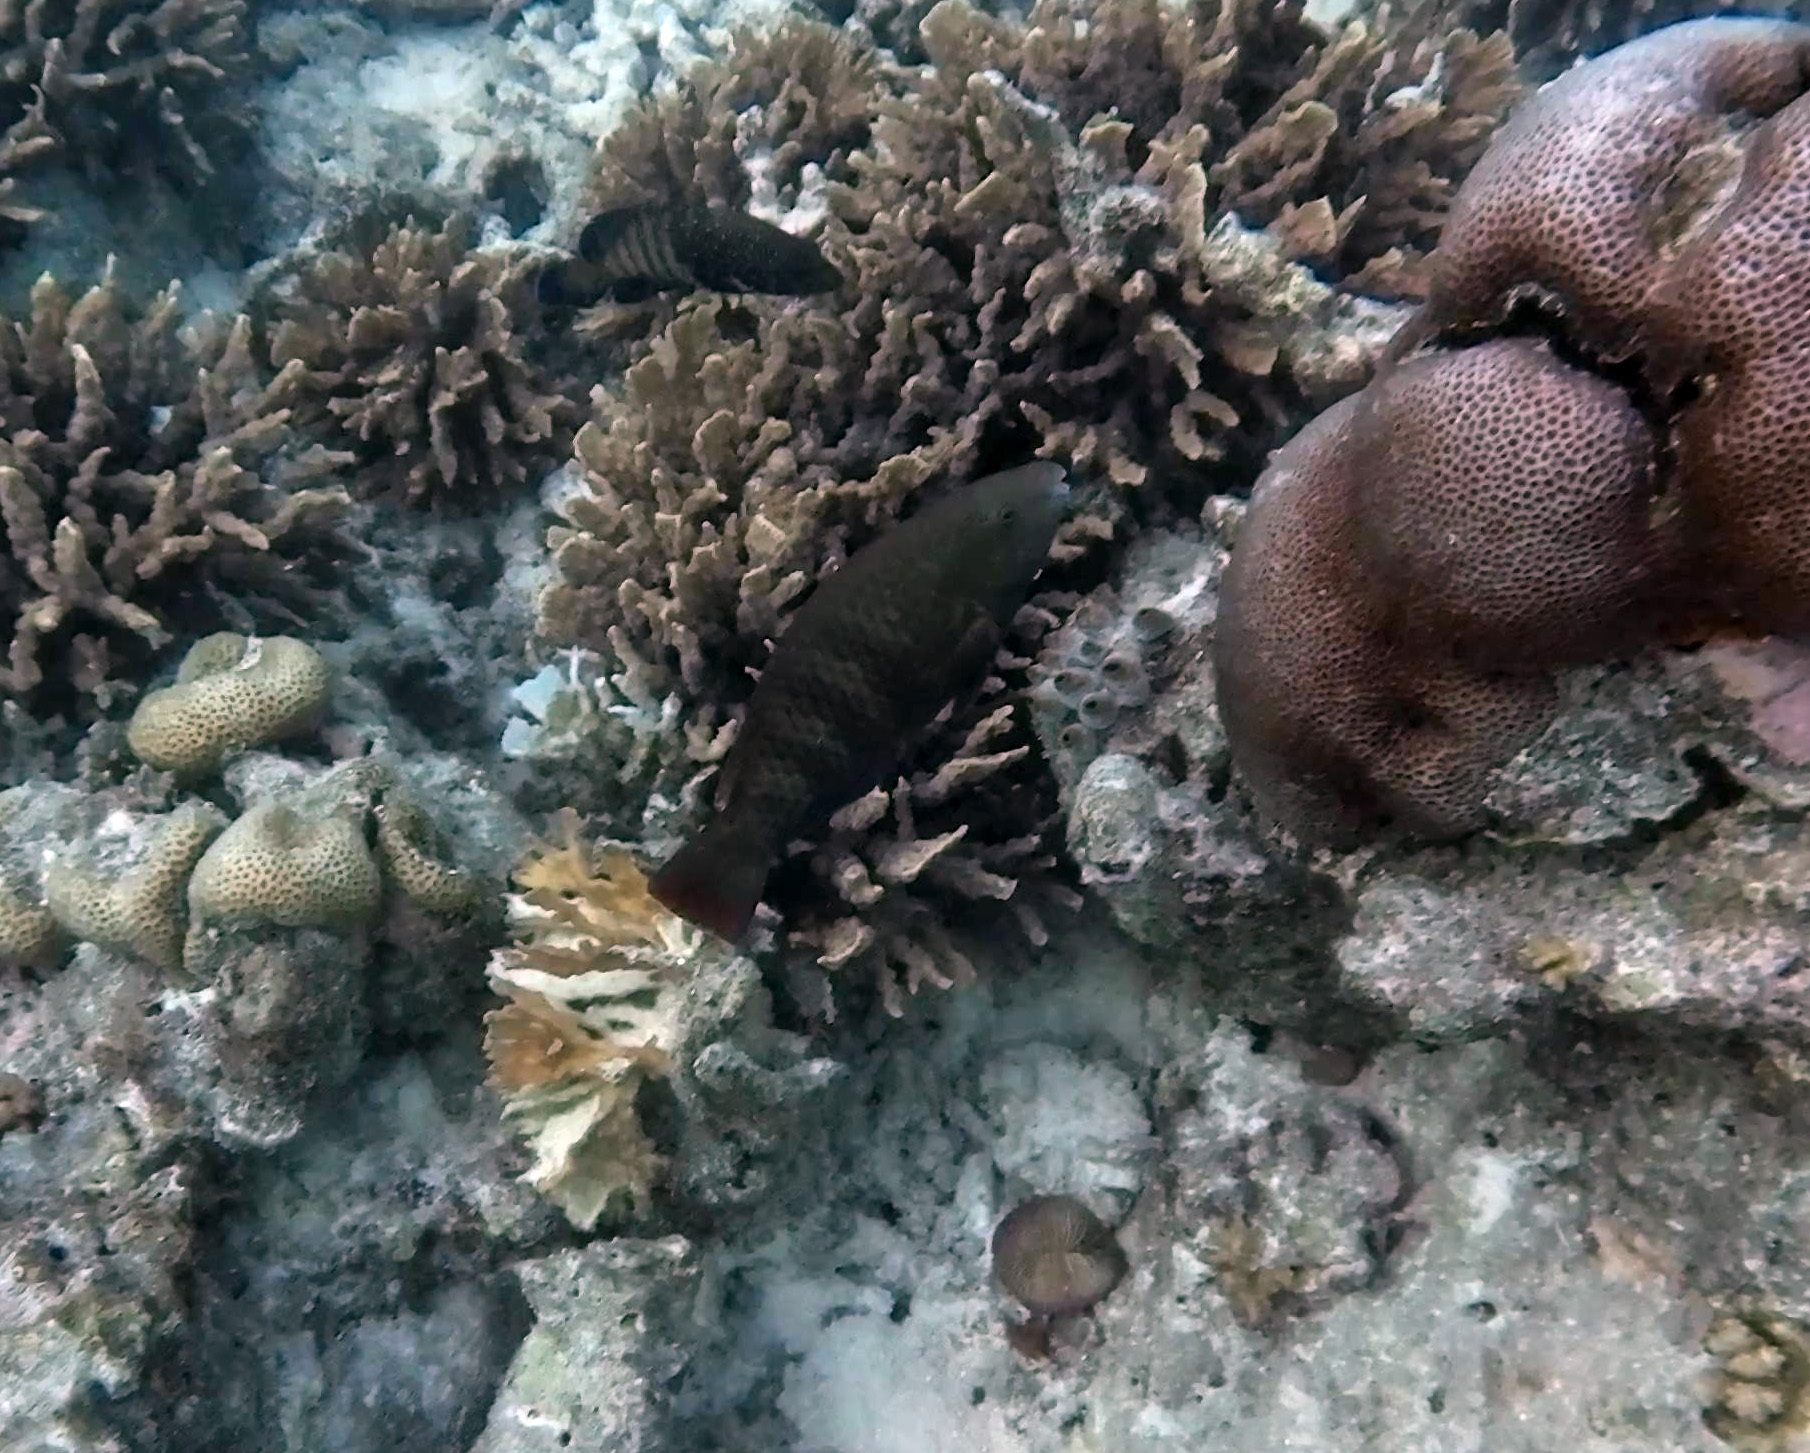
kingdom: Animalia
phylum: Chordata
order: Perciformes
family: Scaridae
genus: Scarus
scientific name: Scarus russelii
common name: Eclipse parrotfish
